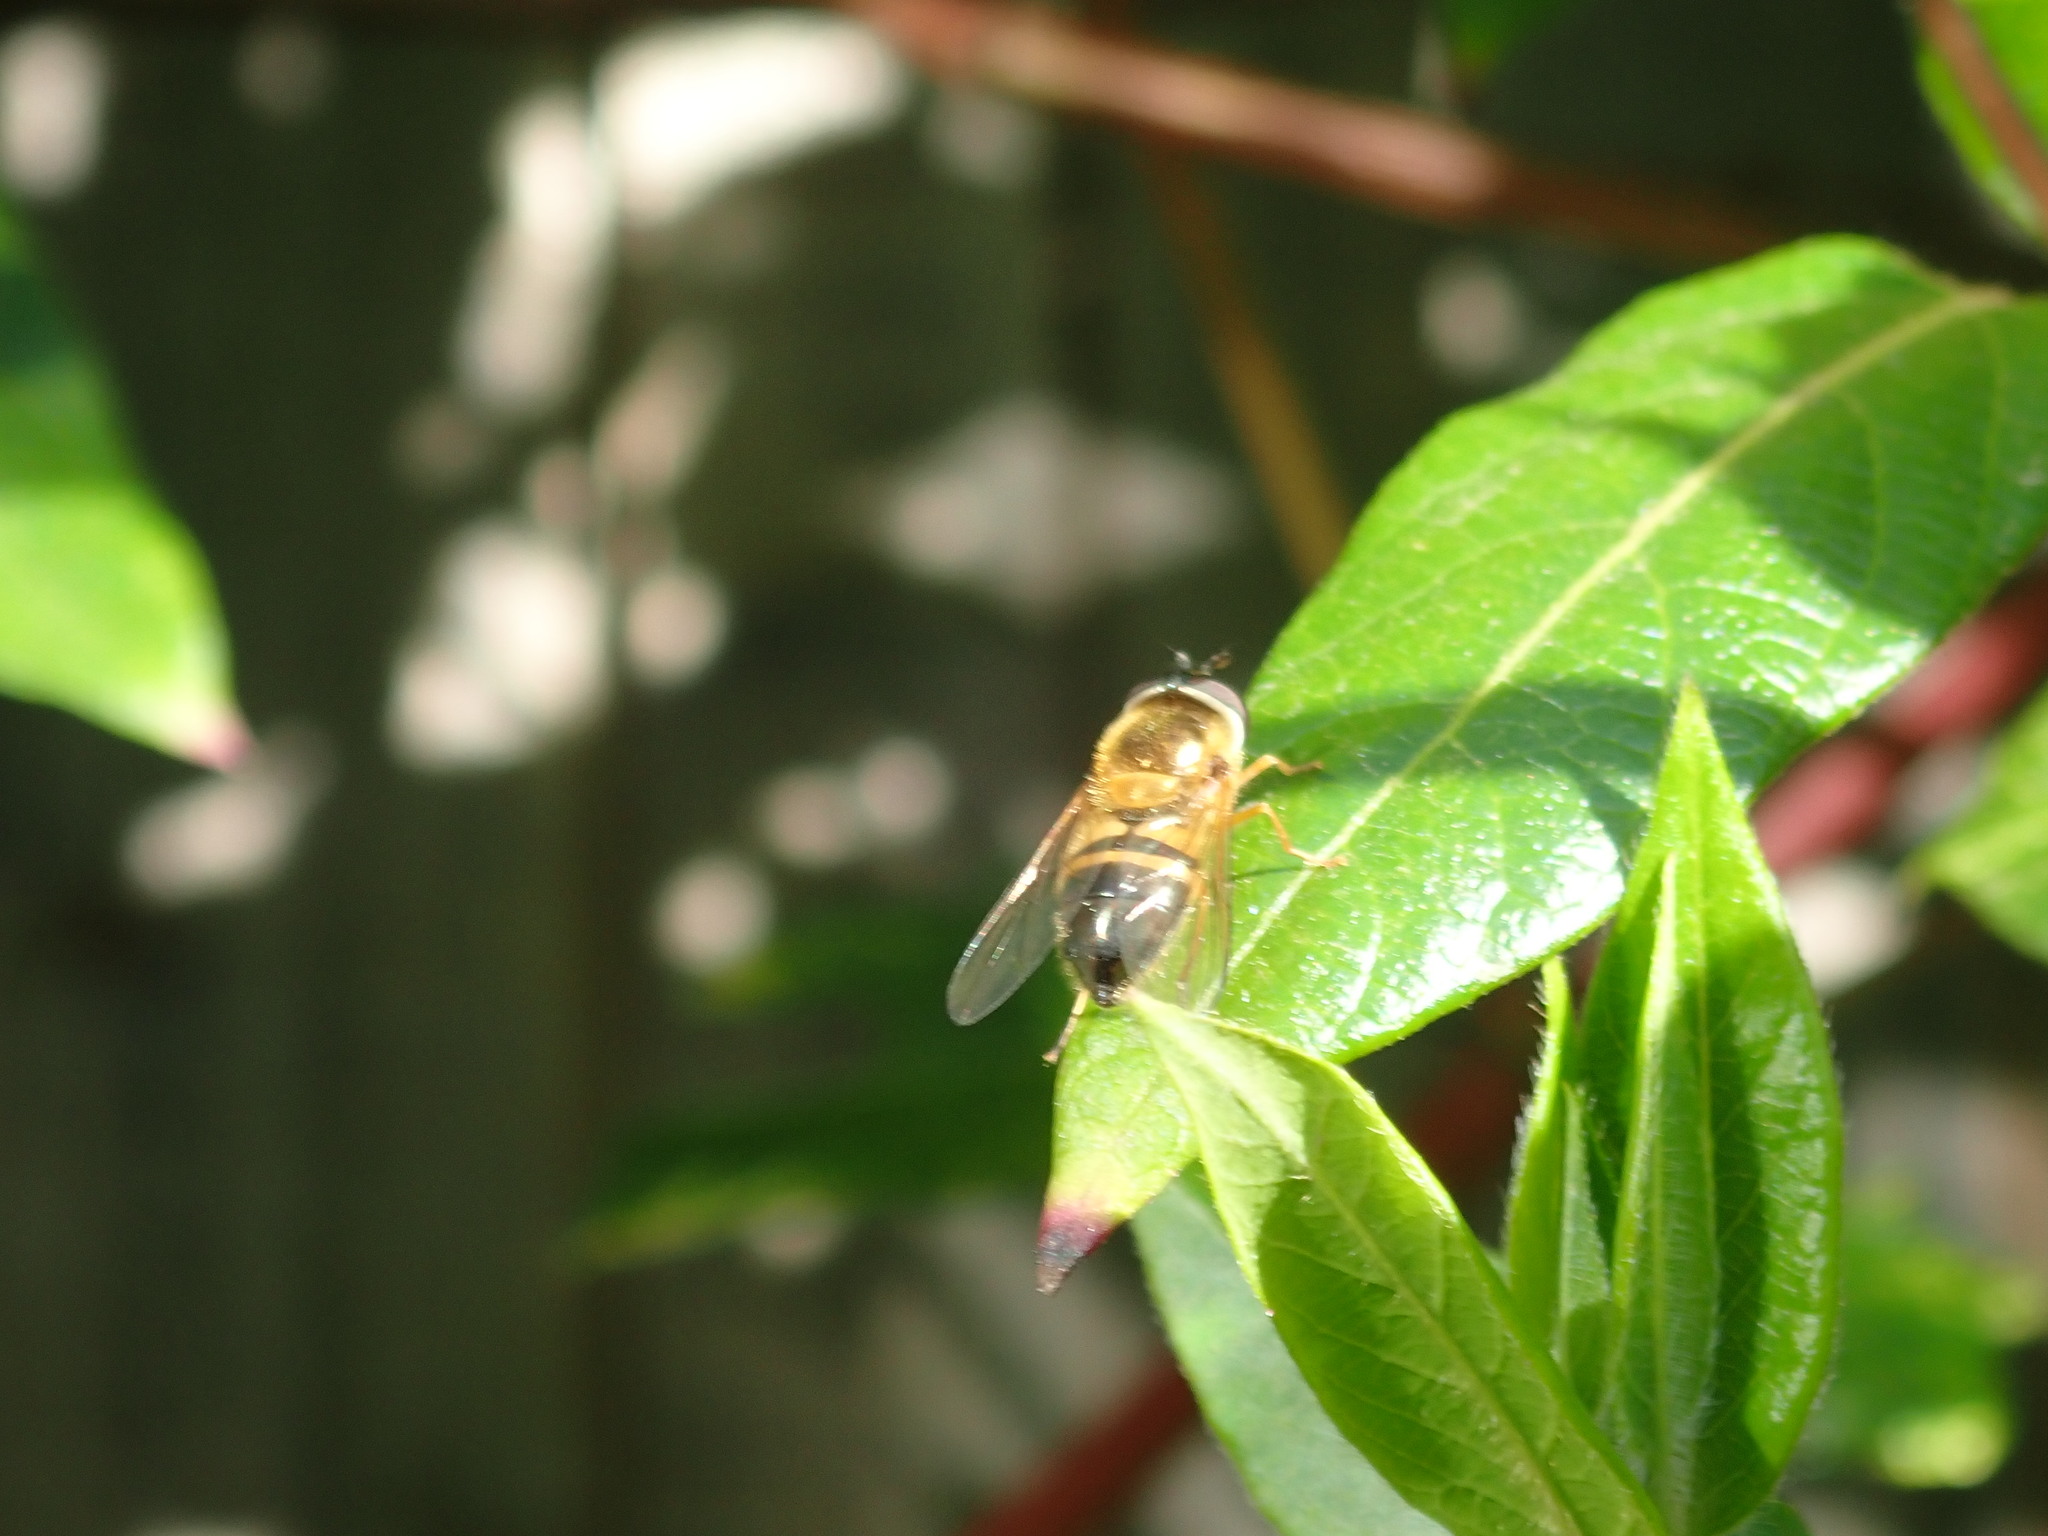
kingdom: Animalia
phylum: Arthropoda
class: Insecta
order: Diptera
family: Syrphidae
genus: Epistrophe
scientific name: Epistrophe eligans
